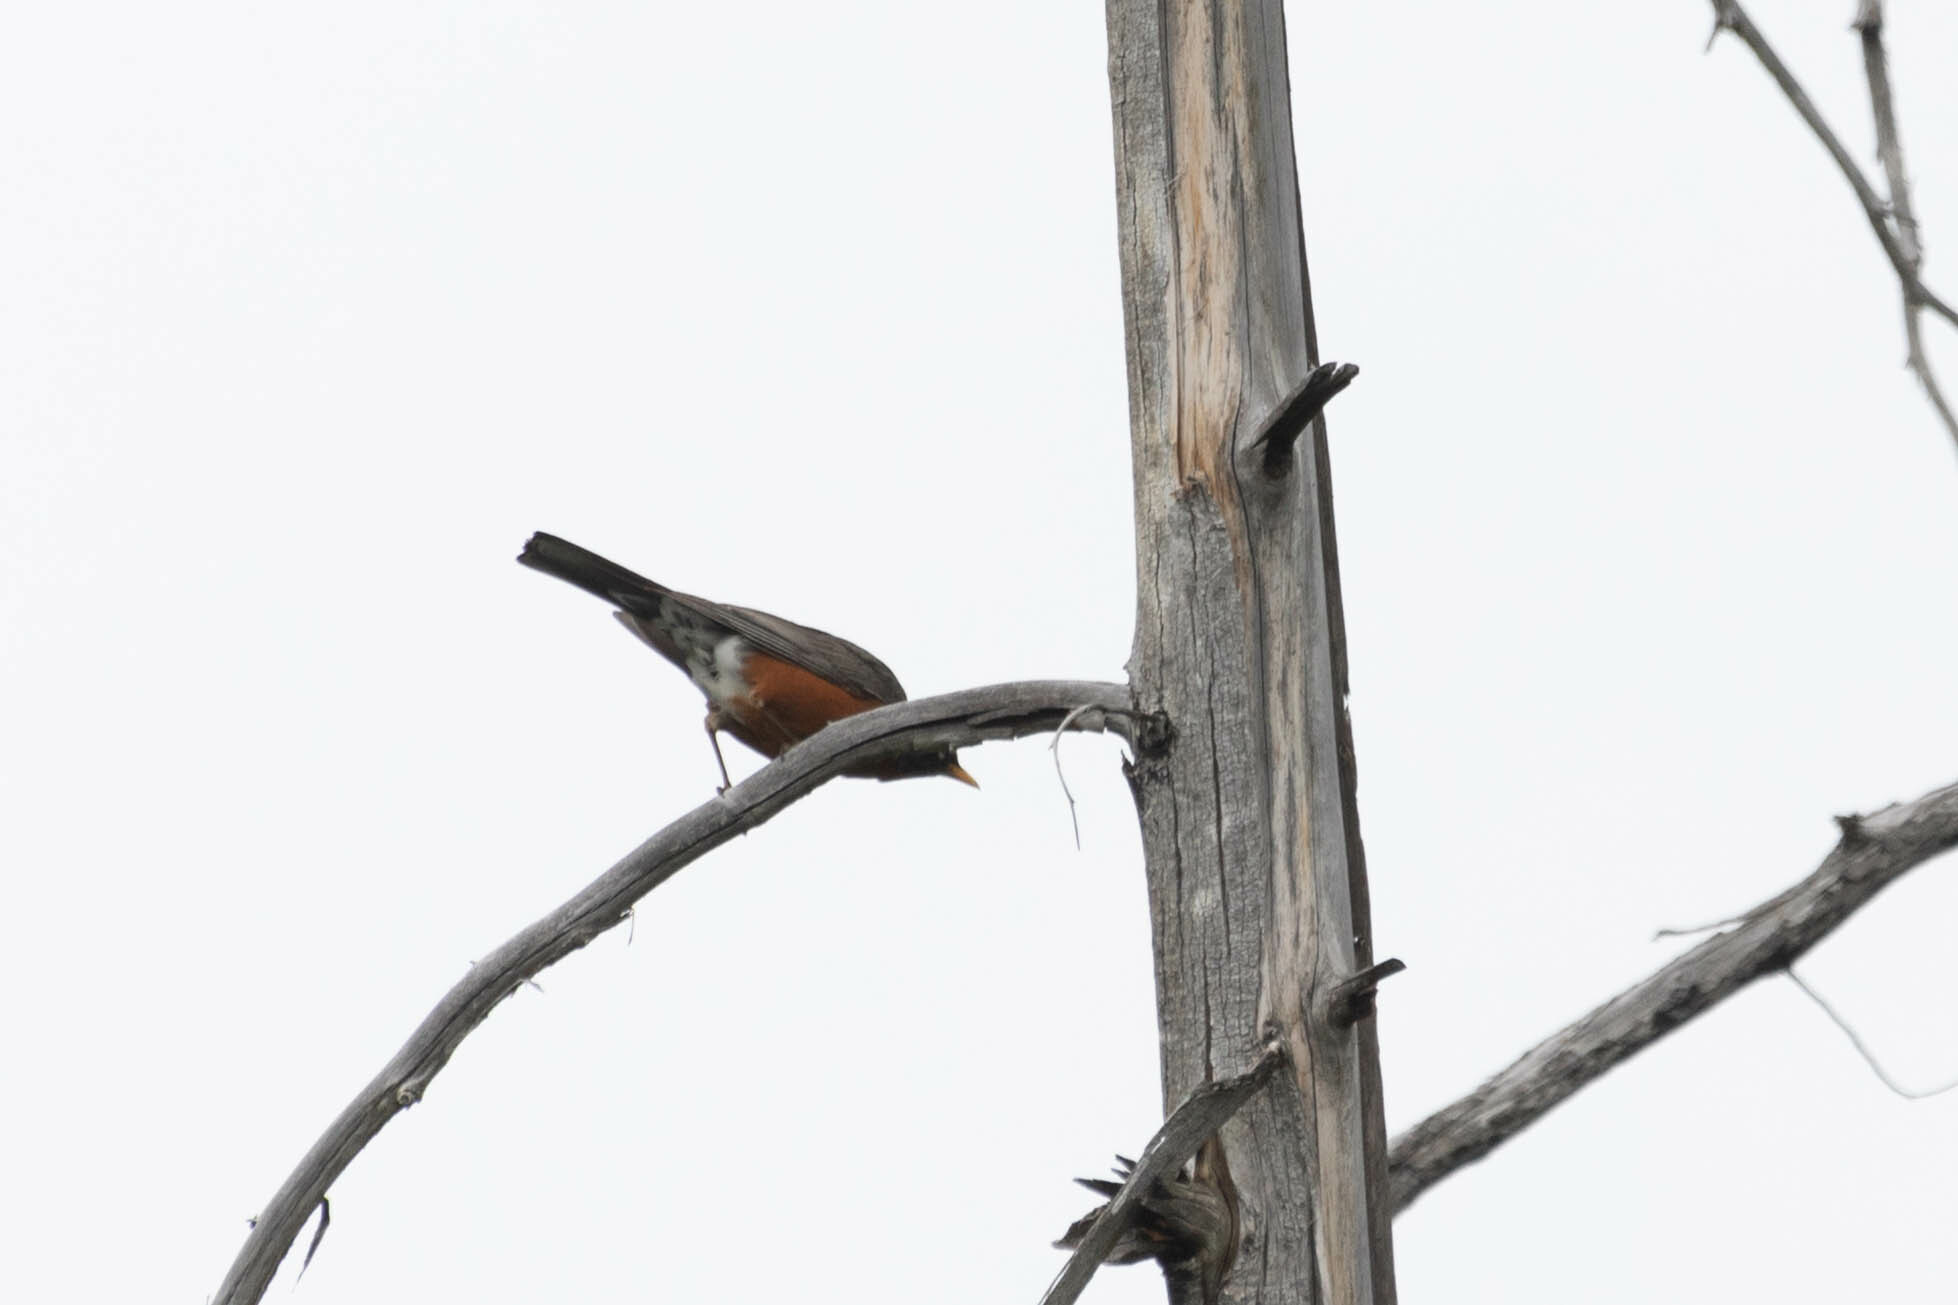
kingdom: Animalia
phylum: Chordata
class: Aves
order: Passeriformes
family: Turdidae
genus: Turdus
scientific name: Turdus migratorius
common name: American robin
